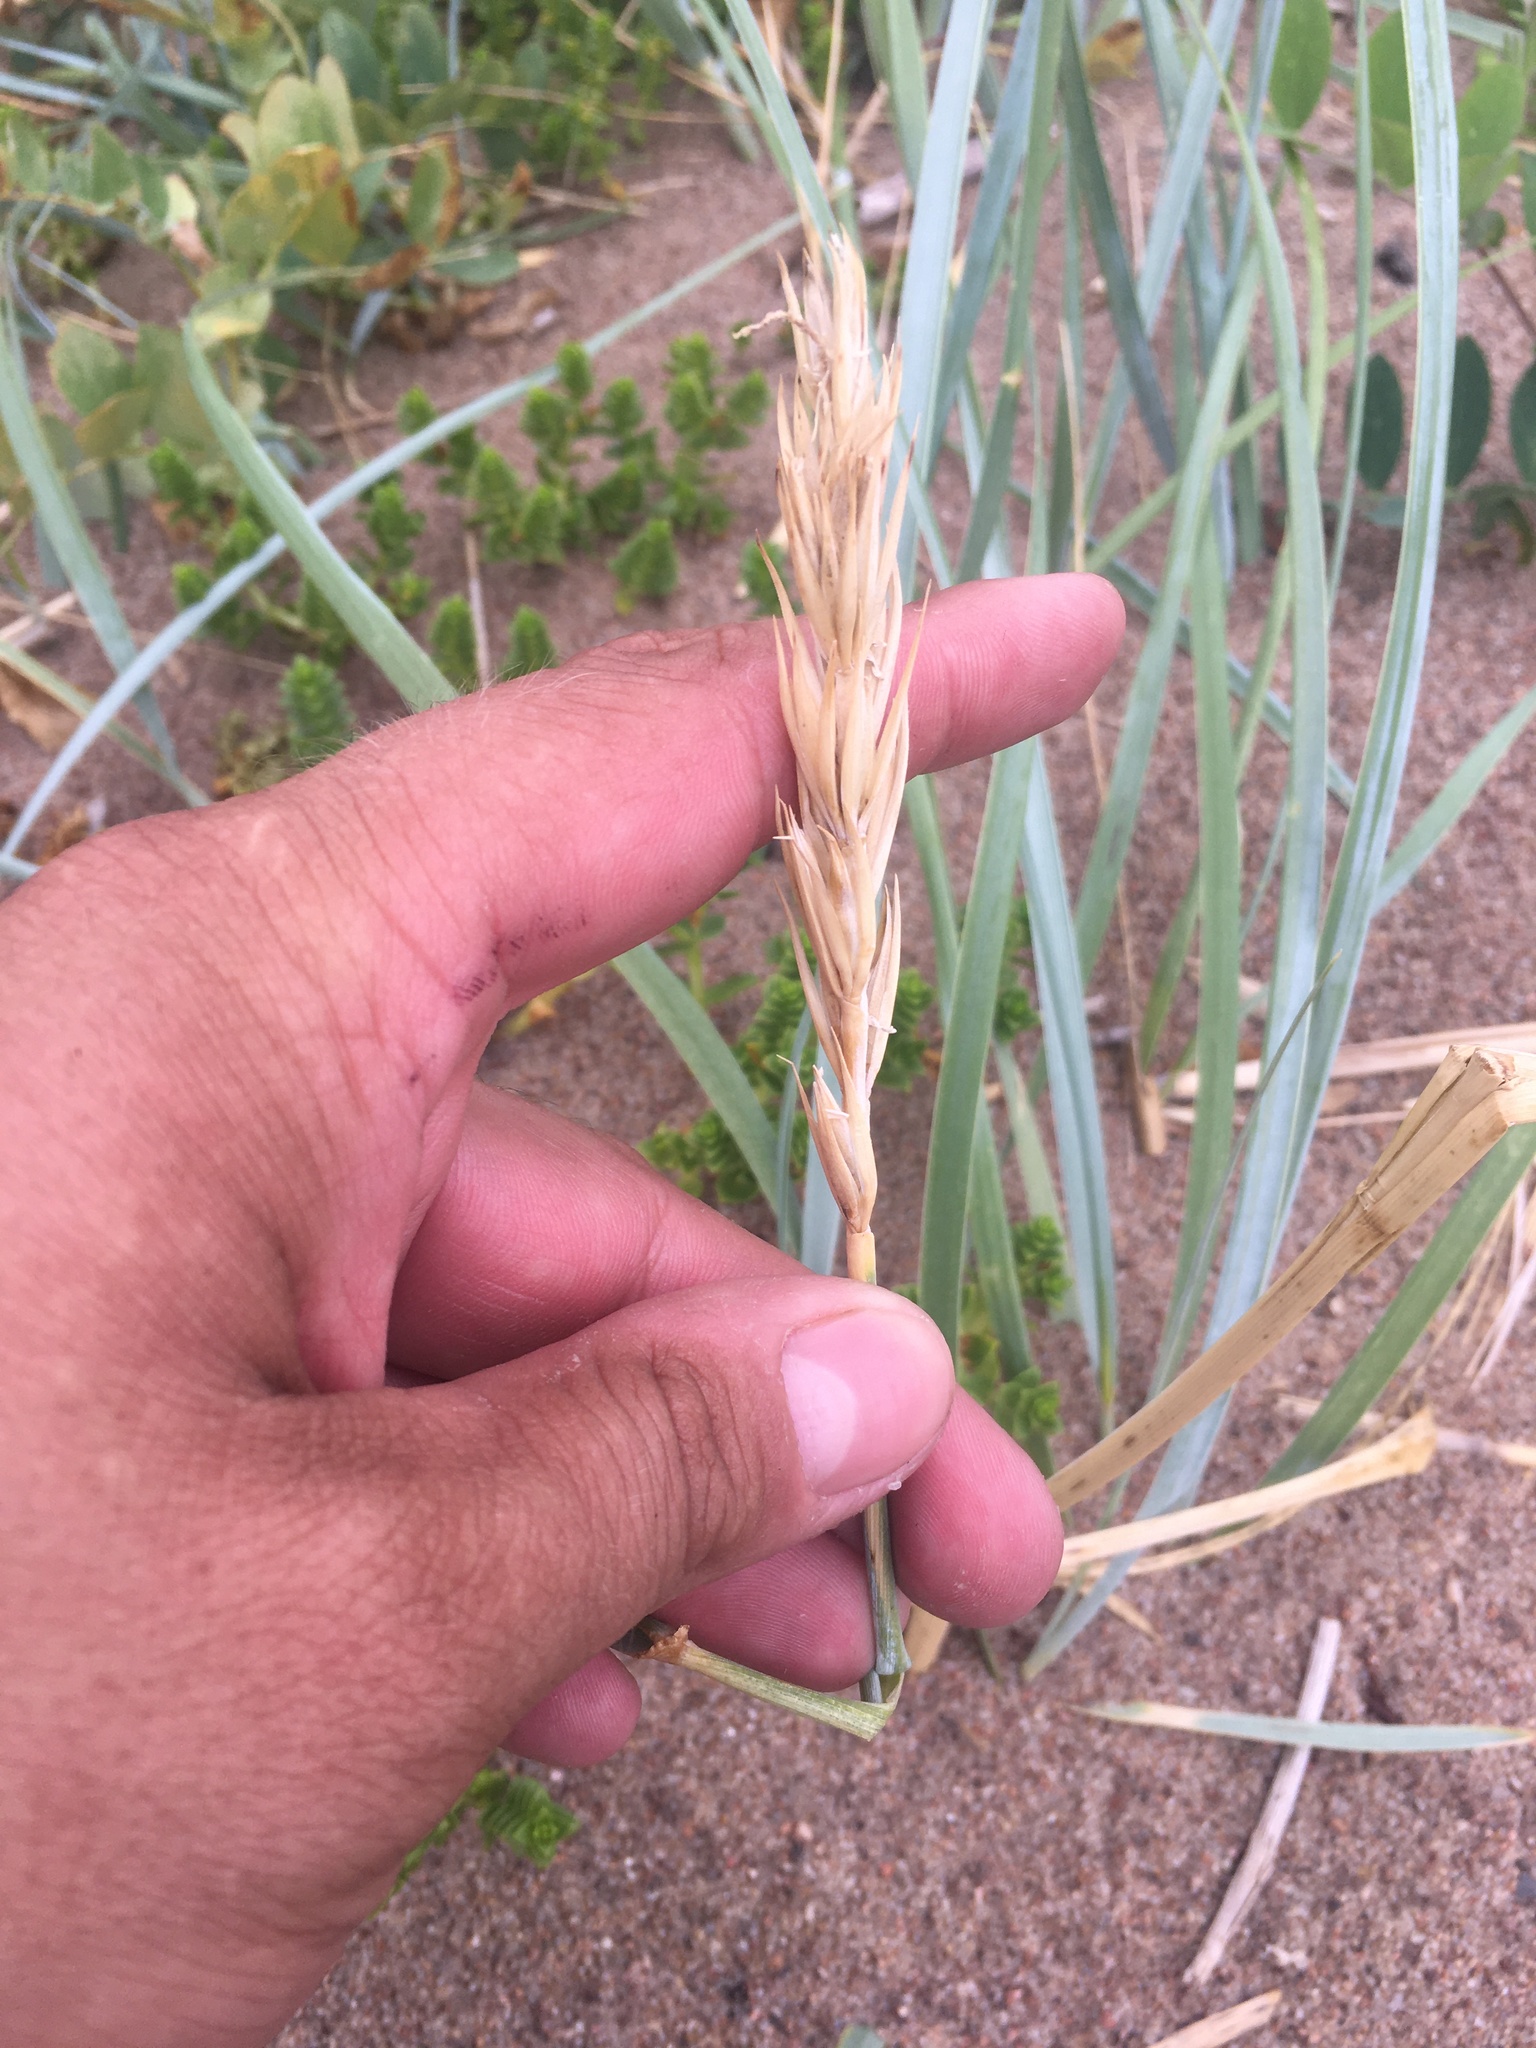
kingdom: Plantae
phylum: Tracheophyta
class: Liliopsida
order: Poales
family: Poaceae
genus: Leymus
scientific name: Leymus arenarius
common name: Lyme-grass
